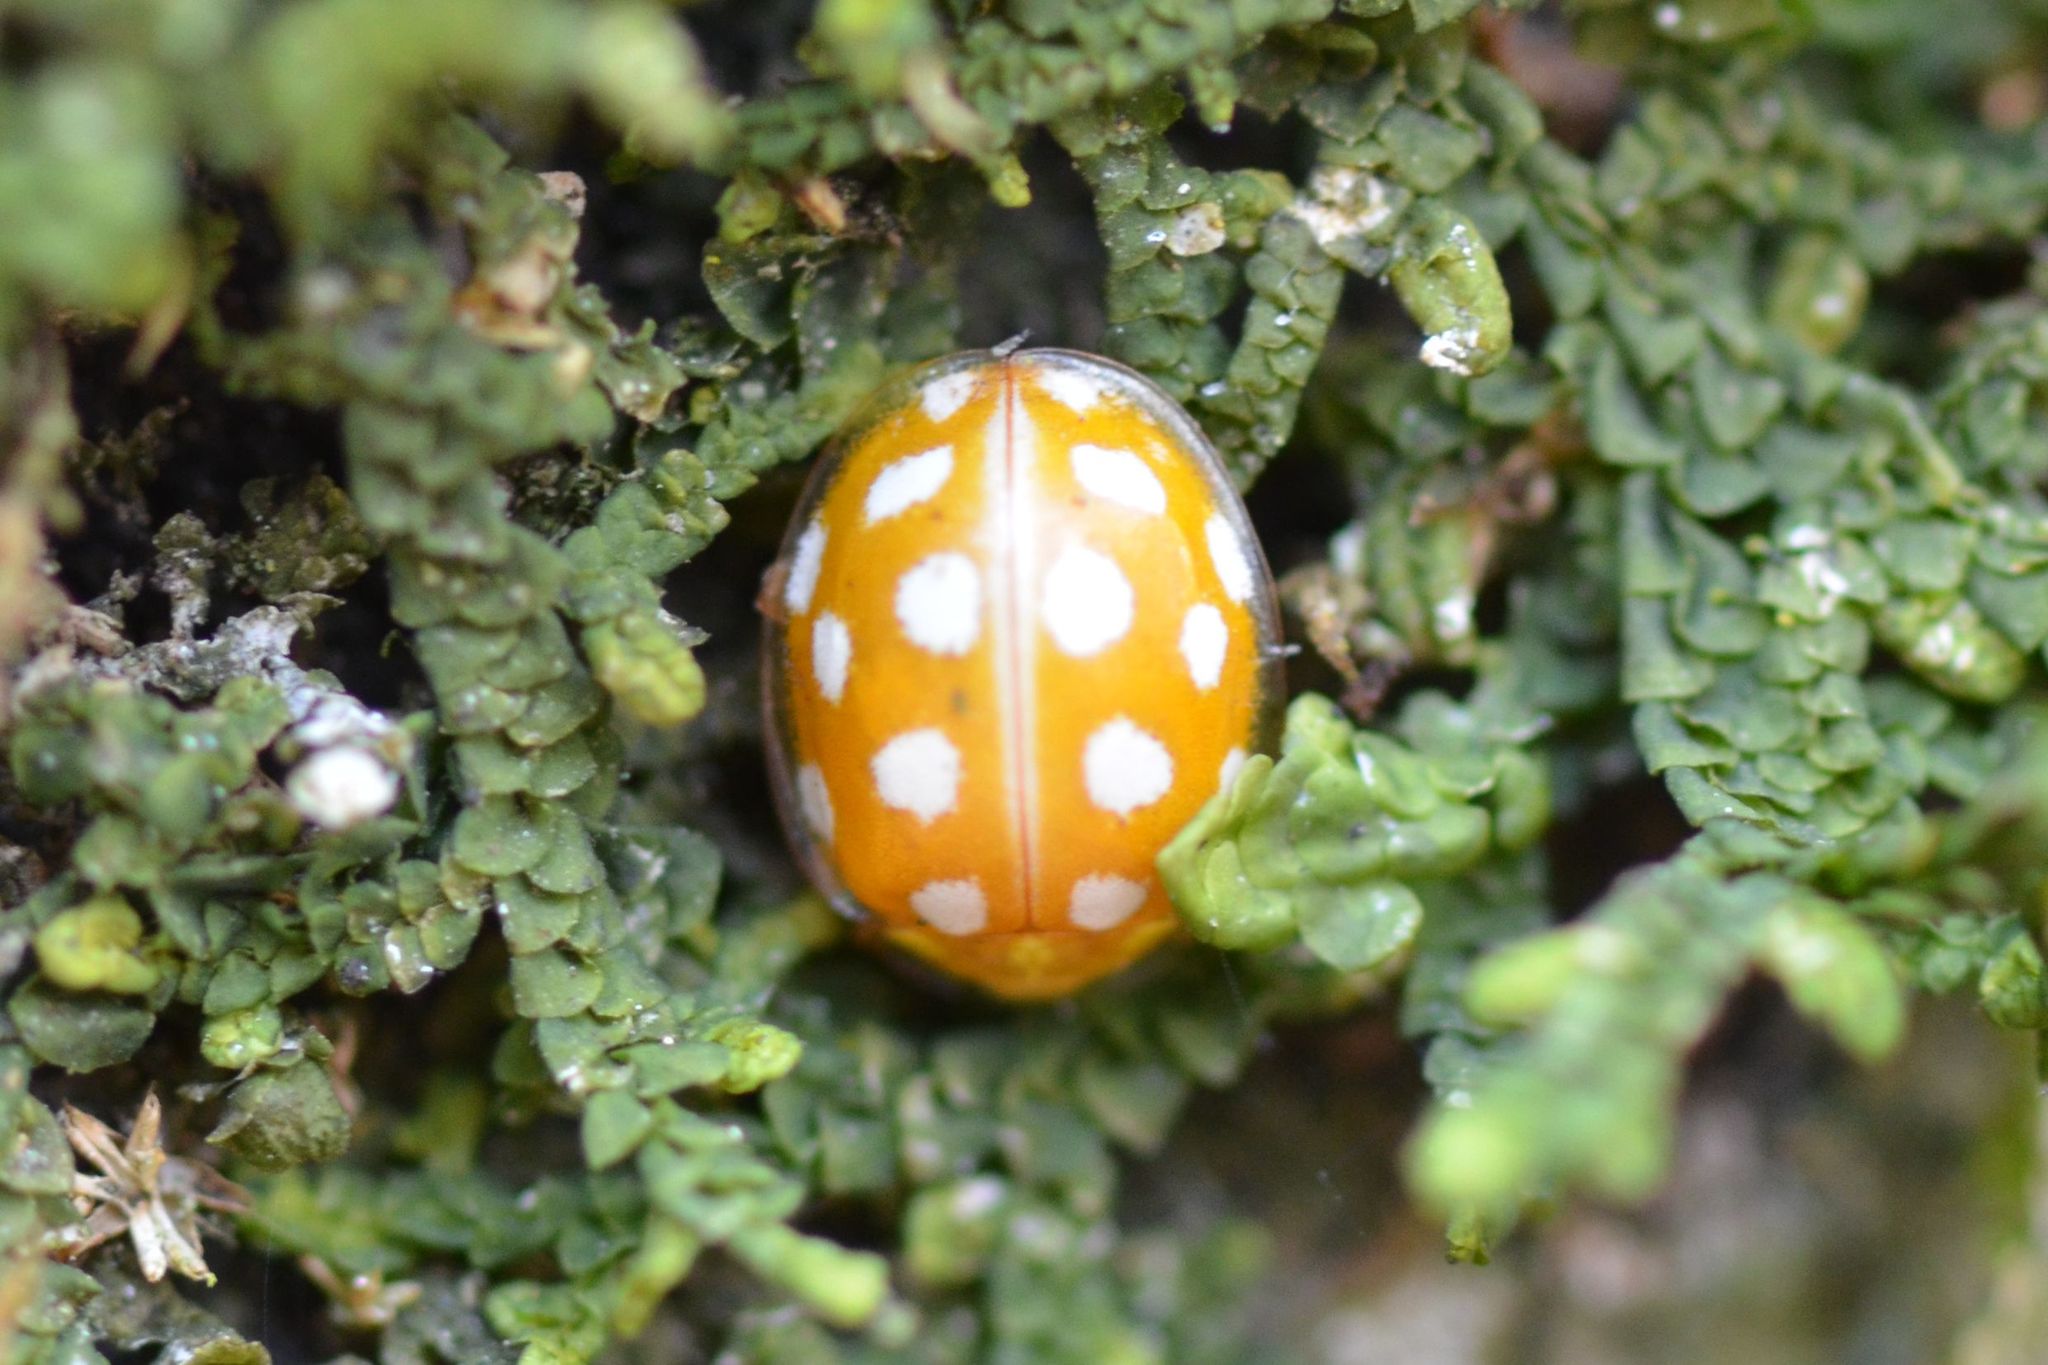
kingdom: Animalia
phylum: Arthropoda
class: Insecta
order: Coleoptera
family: Coccinellidae
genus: Halyzia
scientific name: Halyzia sedecimguttata
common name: Orange ladybird
